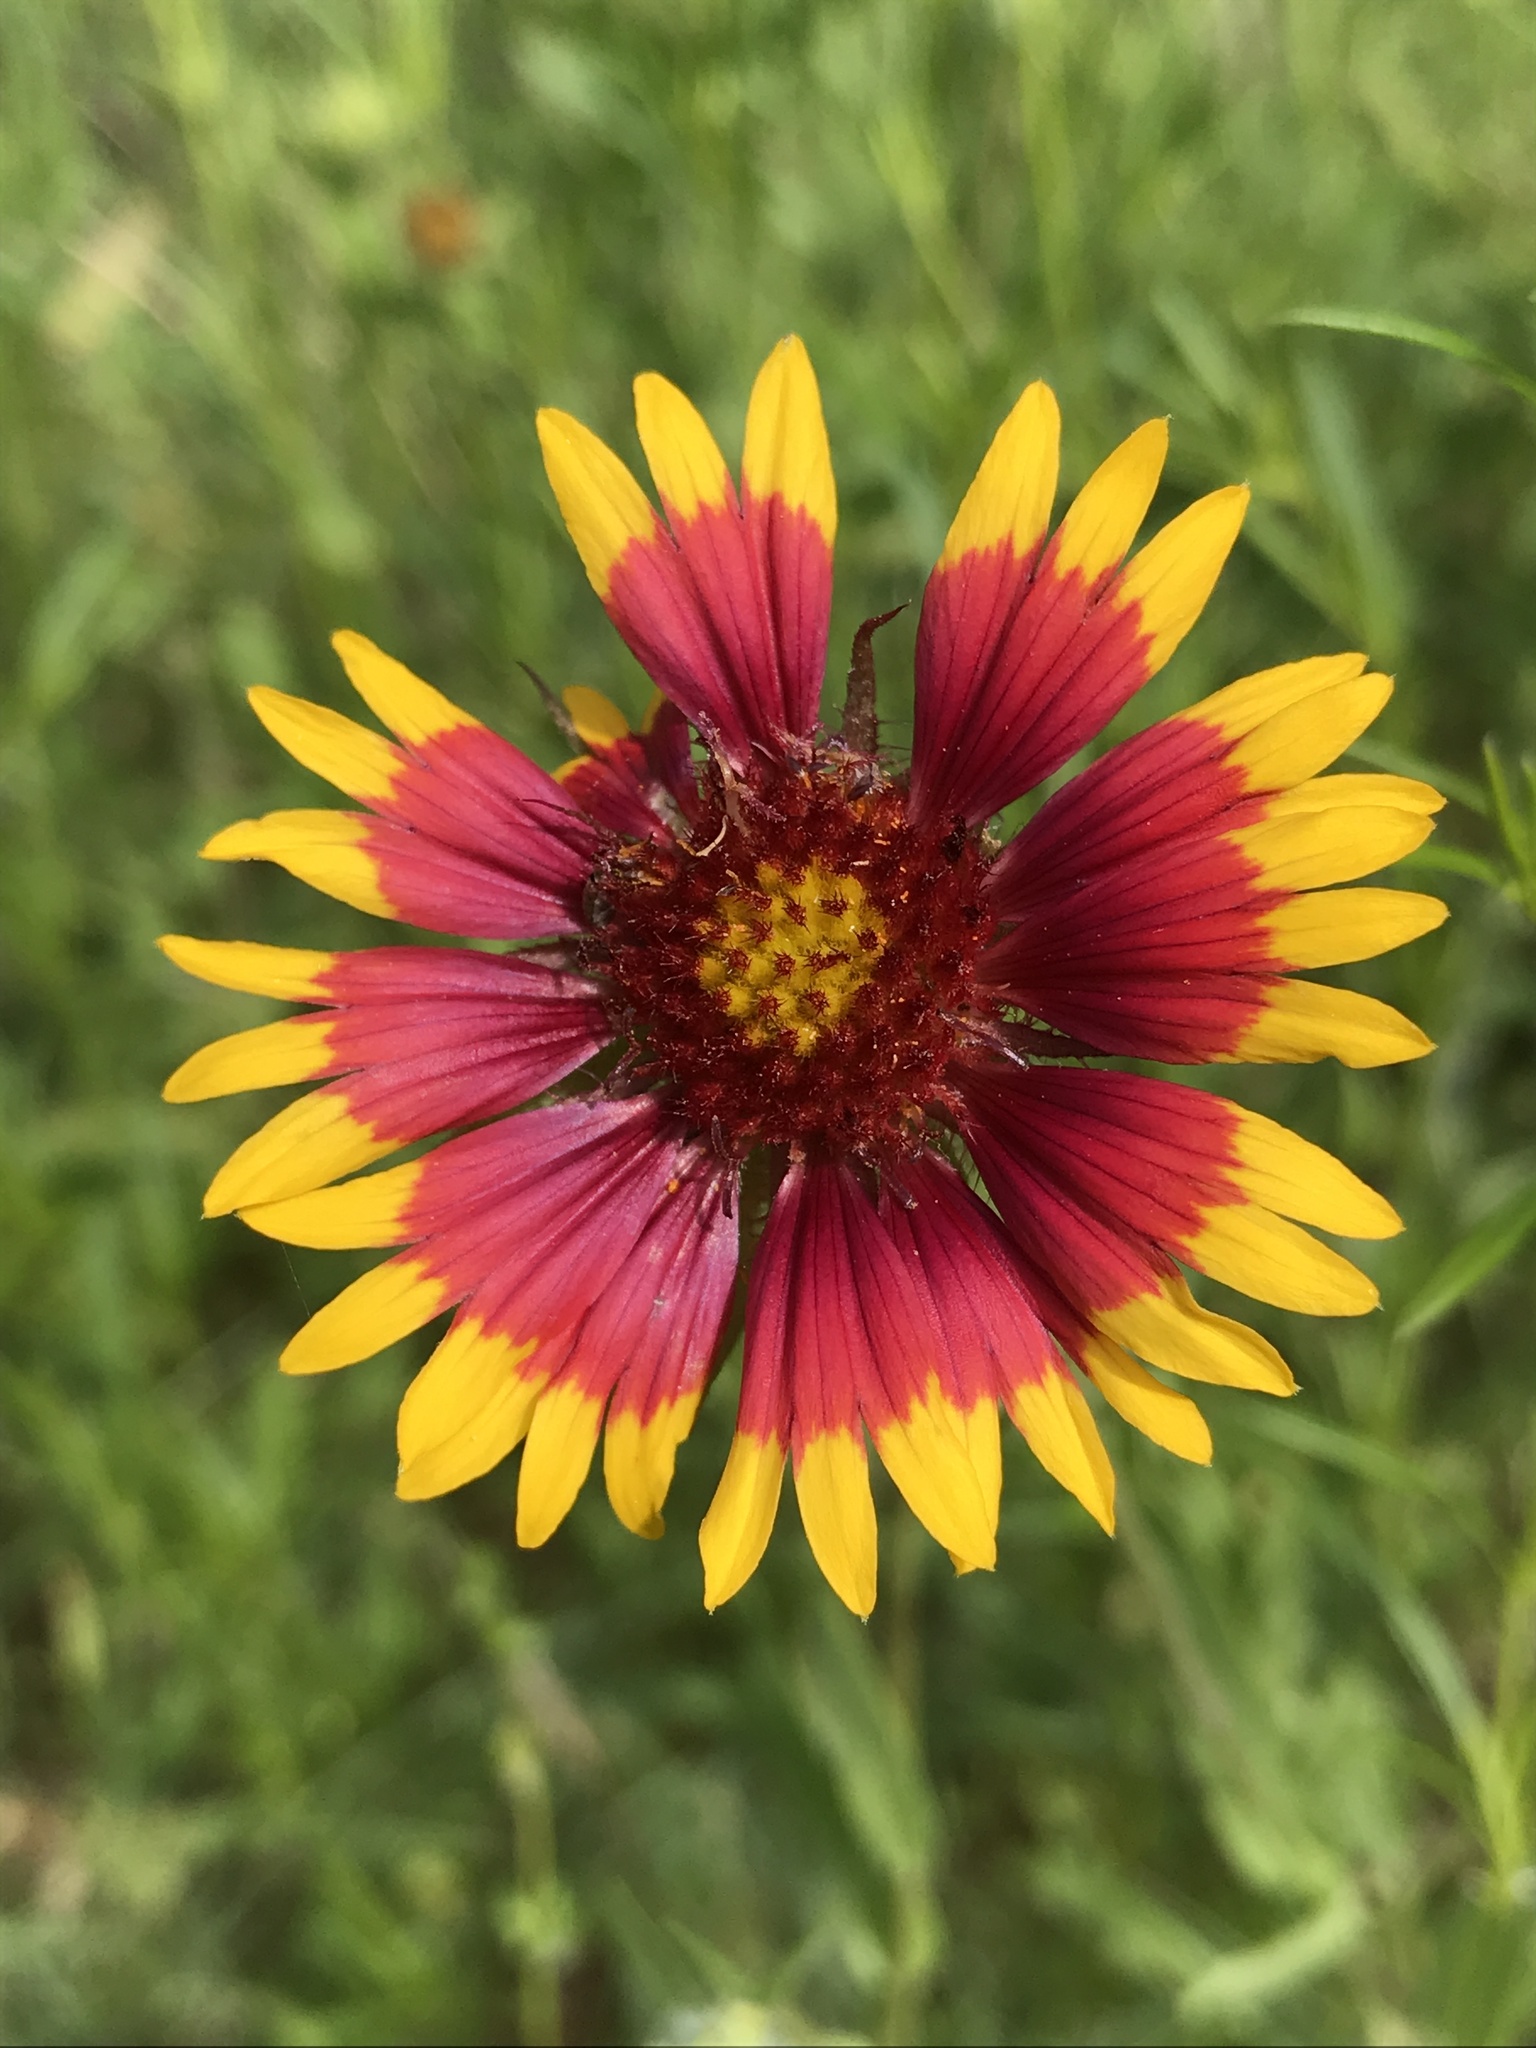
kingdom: Plantae
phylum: Tracheophyta
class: Magnoliopsida
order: Asterales
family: Asteraceae
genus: Gaillardia
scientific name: Gaillardia pulchella
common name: Firewheel
